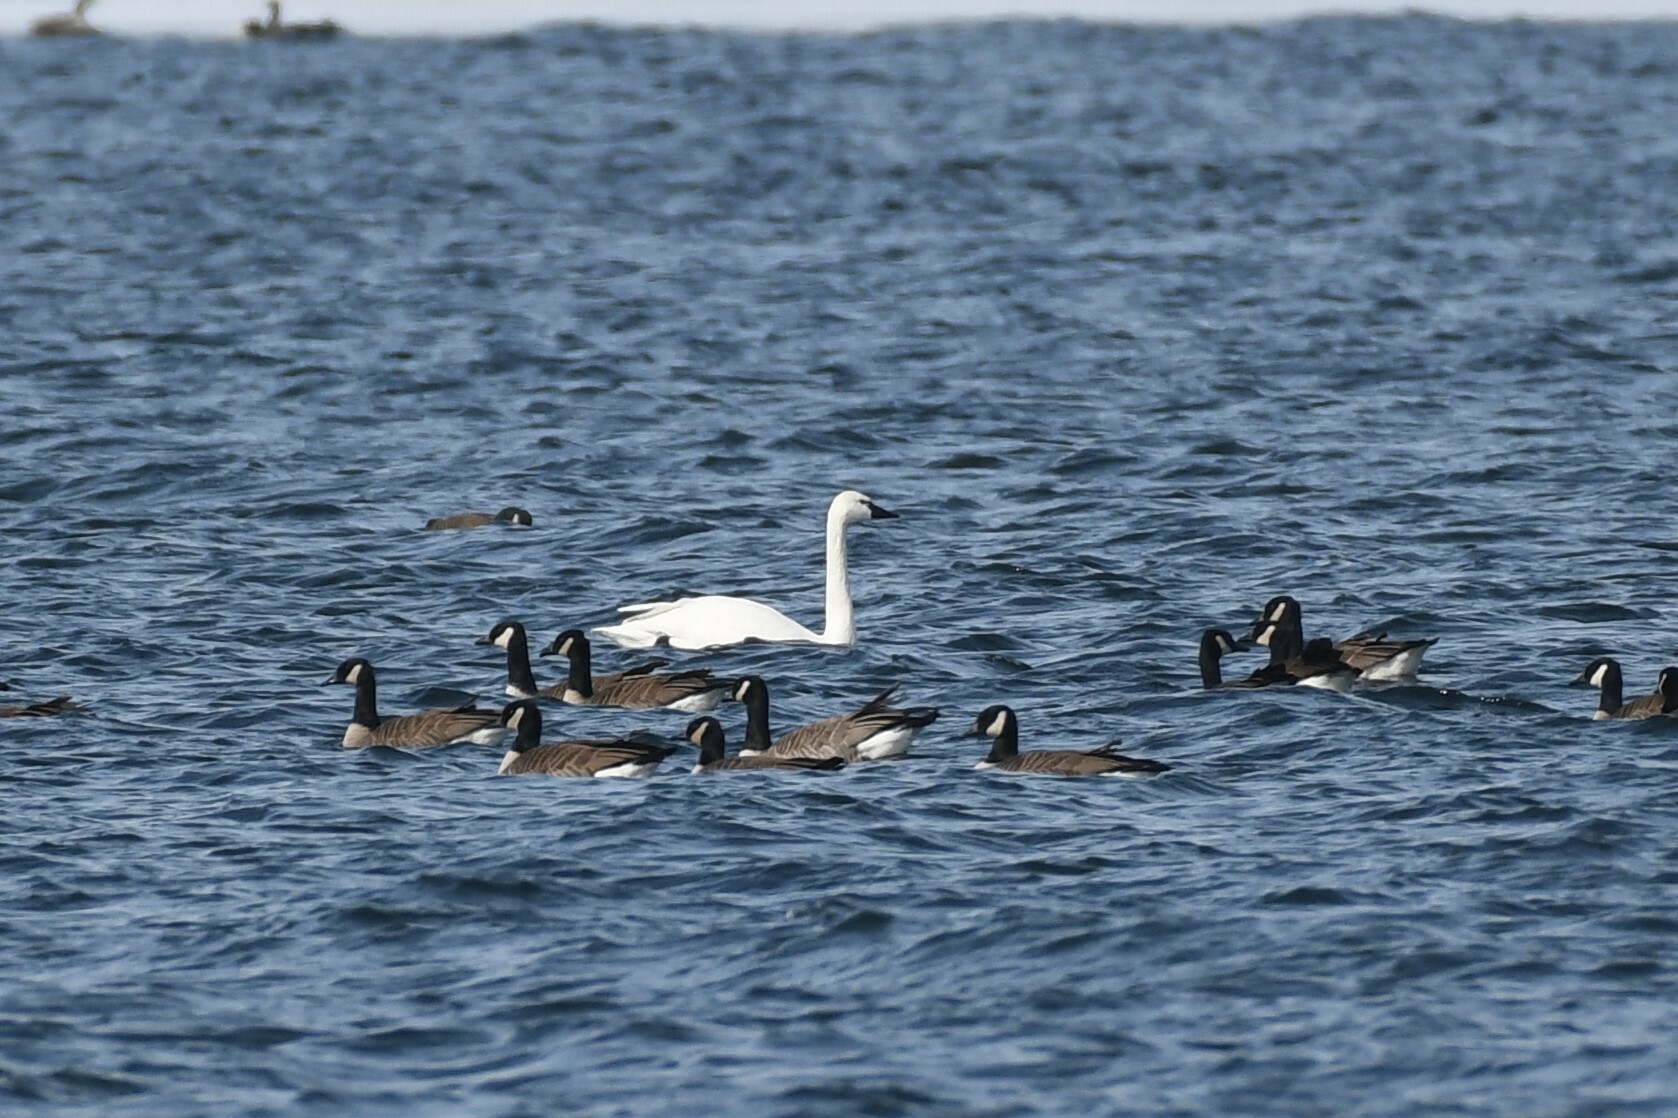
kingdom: Animalia
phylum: Chordata
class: Aves
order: Anseriformes
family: Anatidae
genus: Cygnus
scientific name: Cygnus columbianus
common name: Tundra swan
